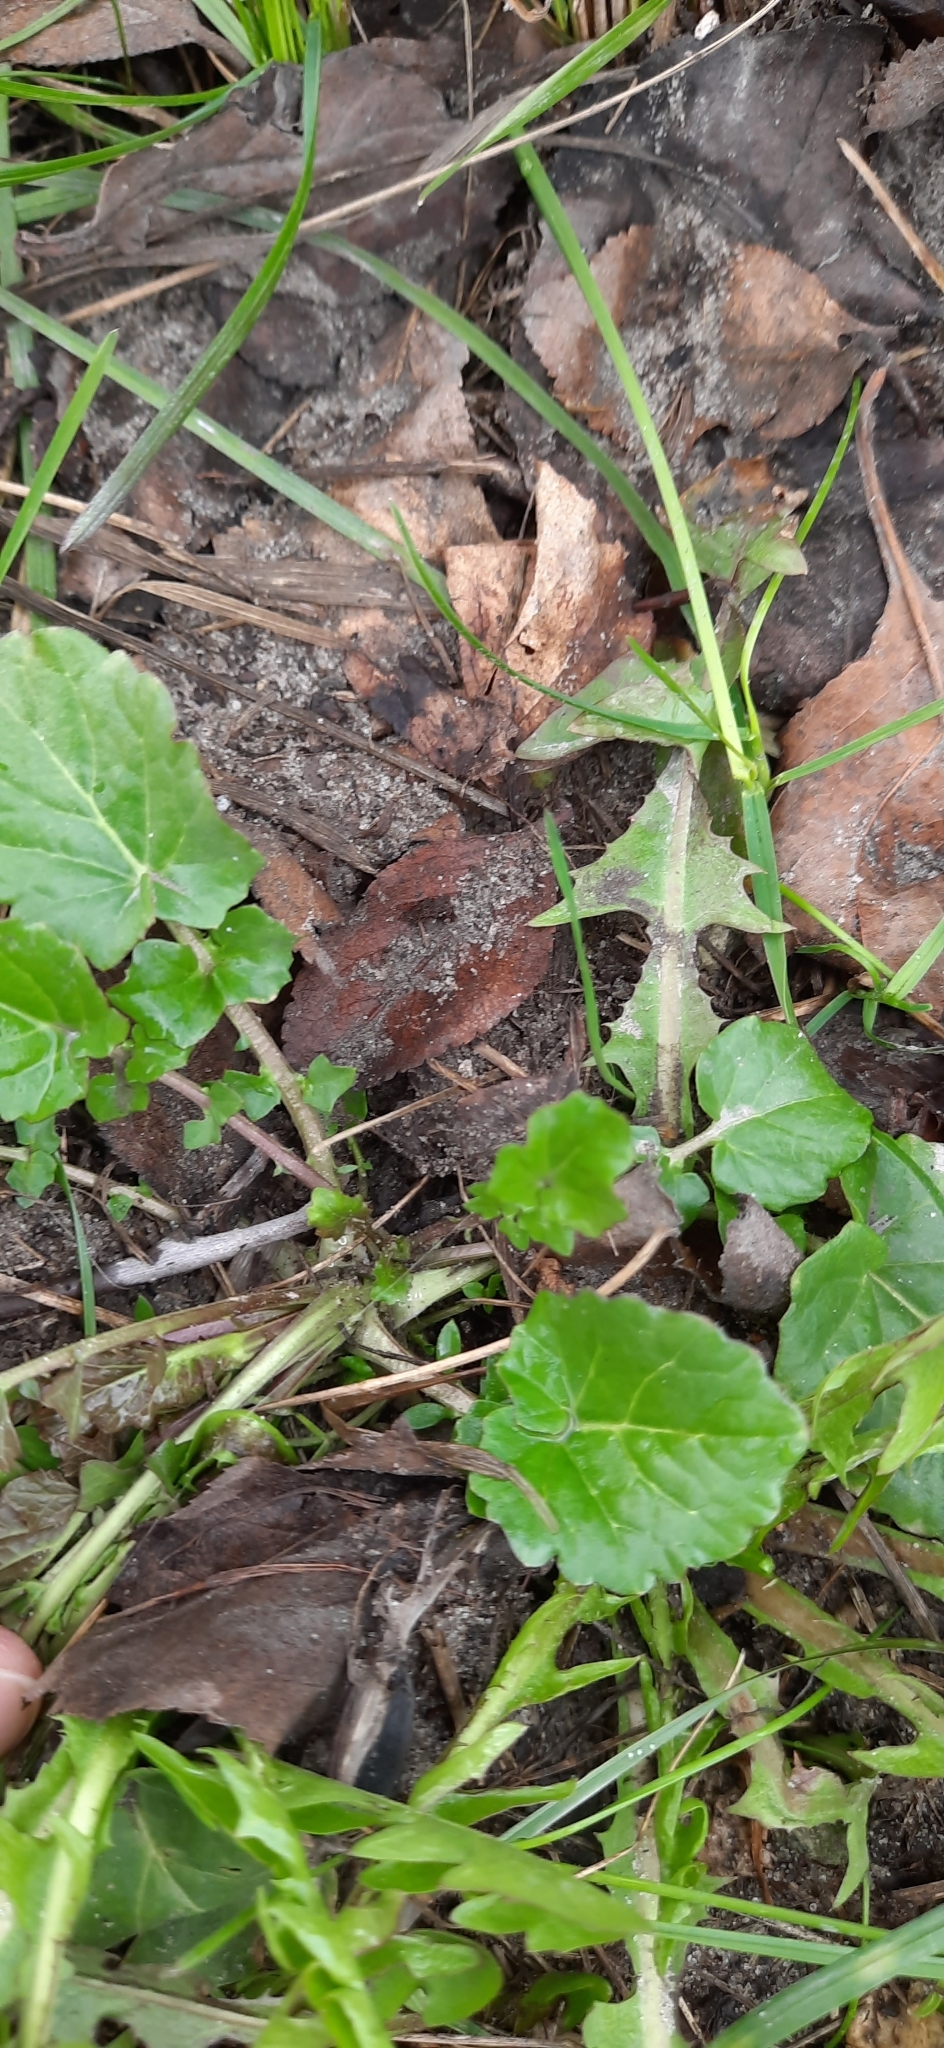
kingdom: Plantae
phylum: Tracheophyta
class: Magnoliopsida
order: Brassicales
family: Brassicaceae
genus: Barbarea
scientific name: Barbarea vulgaris
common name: Cressy-greens
